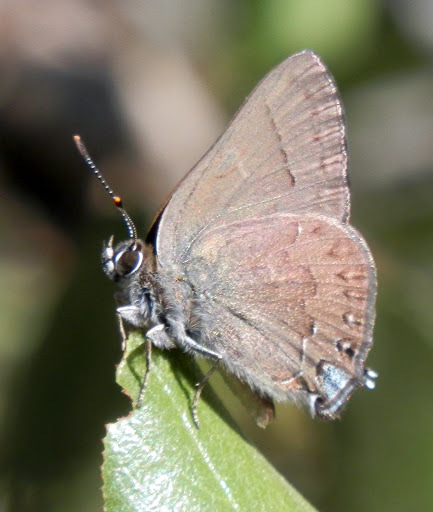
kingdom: Animalia
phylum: Arthropoda
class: Insecta
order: Lepidoptera
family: Lycaenidae
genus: Strymon
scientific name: Strymon saepium
